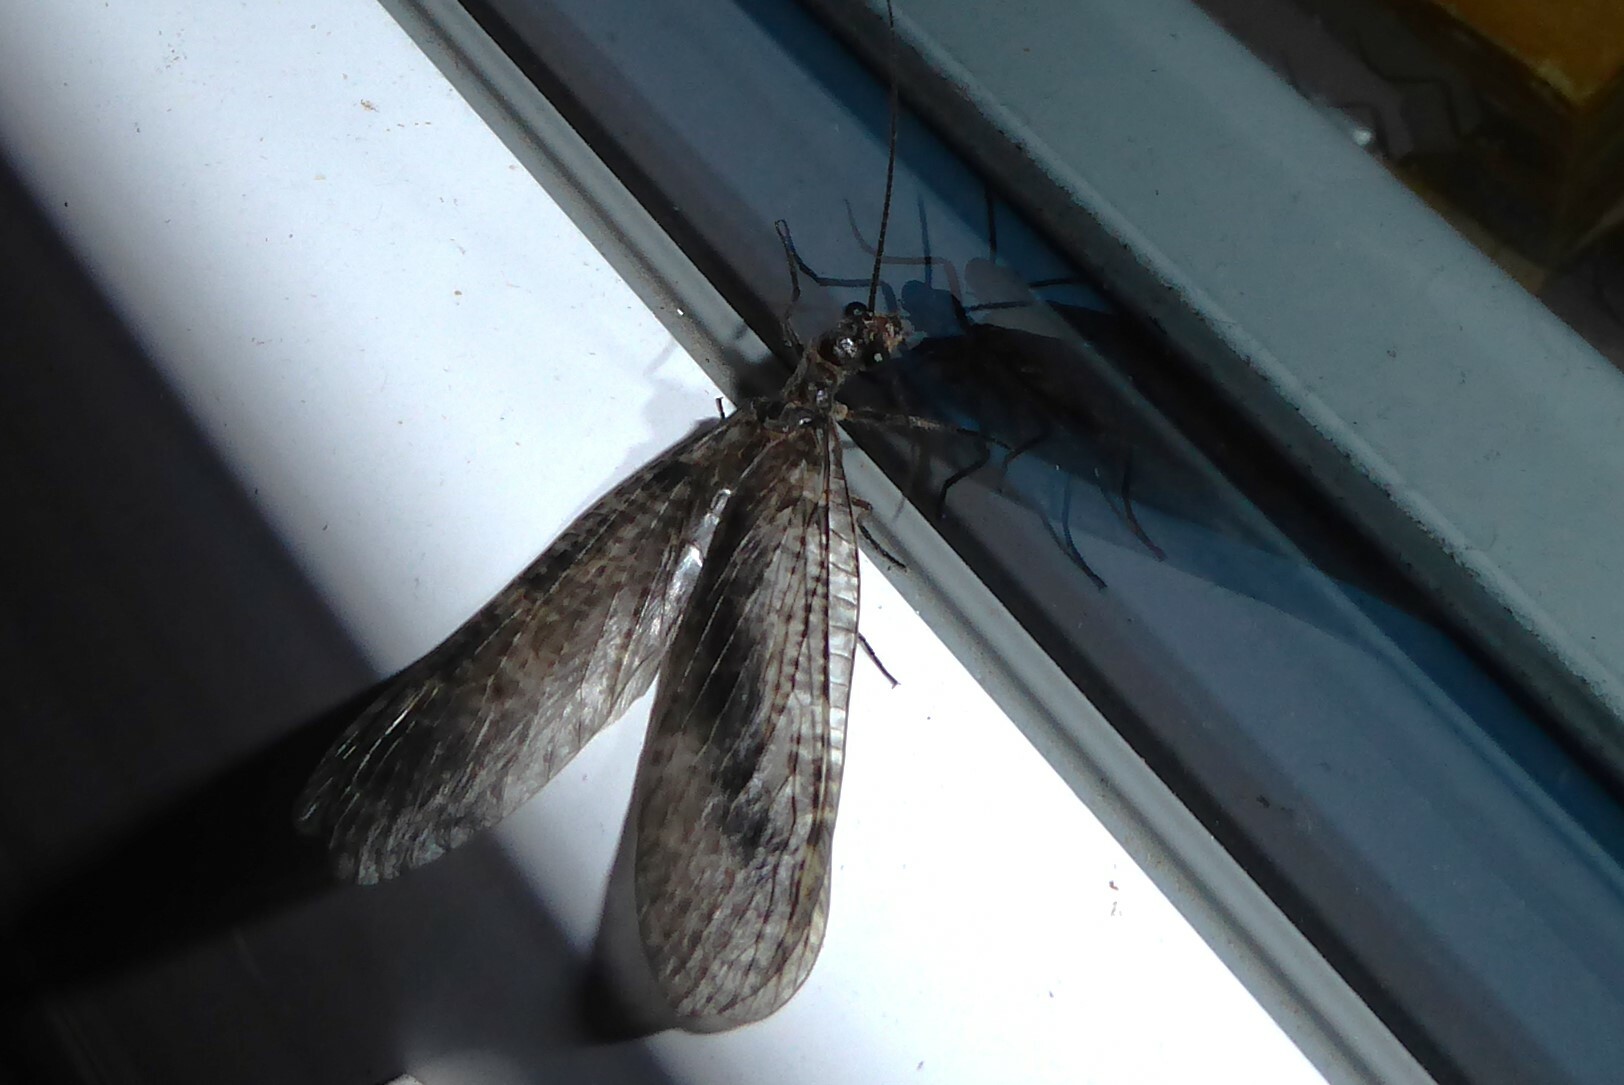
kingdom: Animalia
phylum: Arthropoda
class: Insecta
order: Megaloptera
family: Corydalidae
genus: Archichauliodes
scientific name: Archichauliodes diversus
